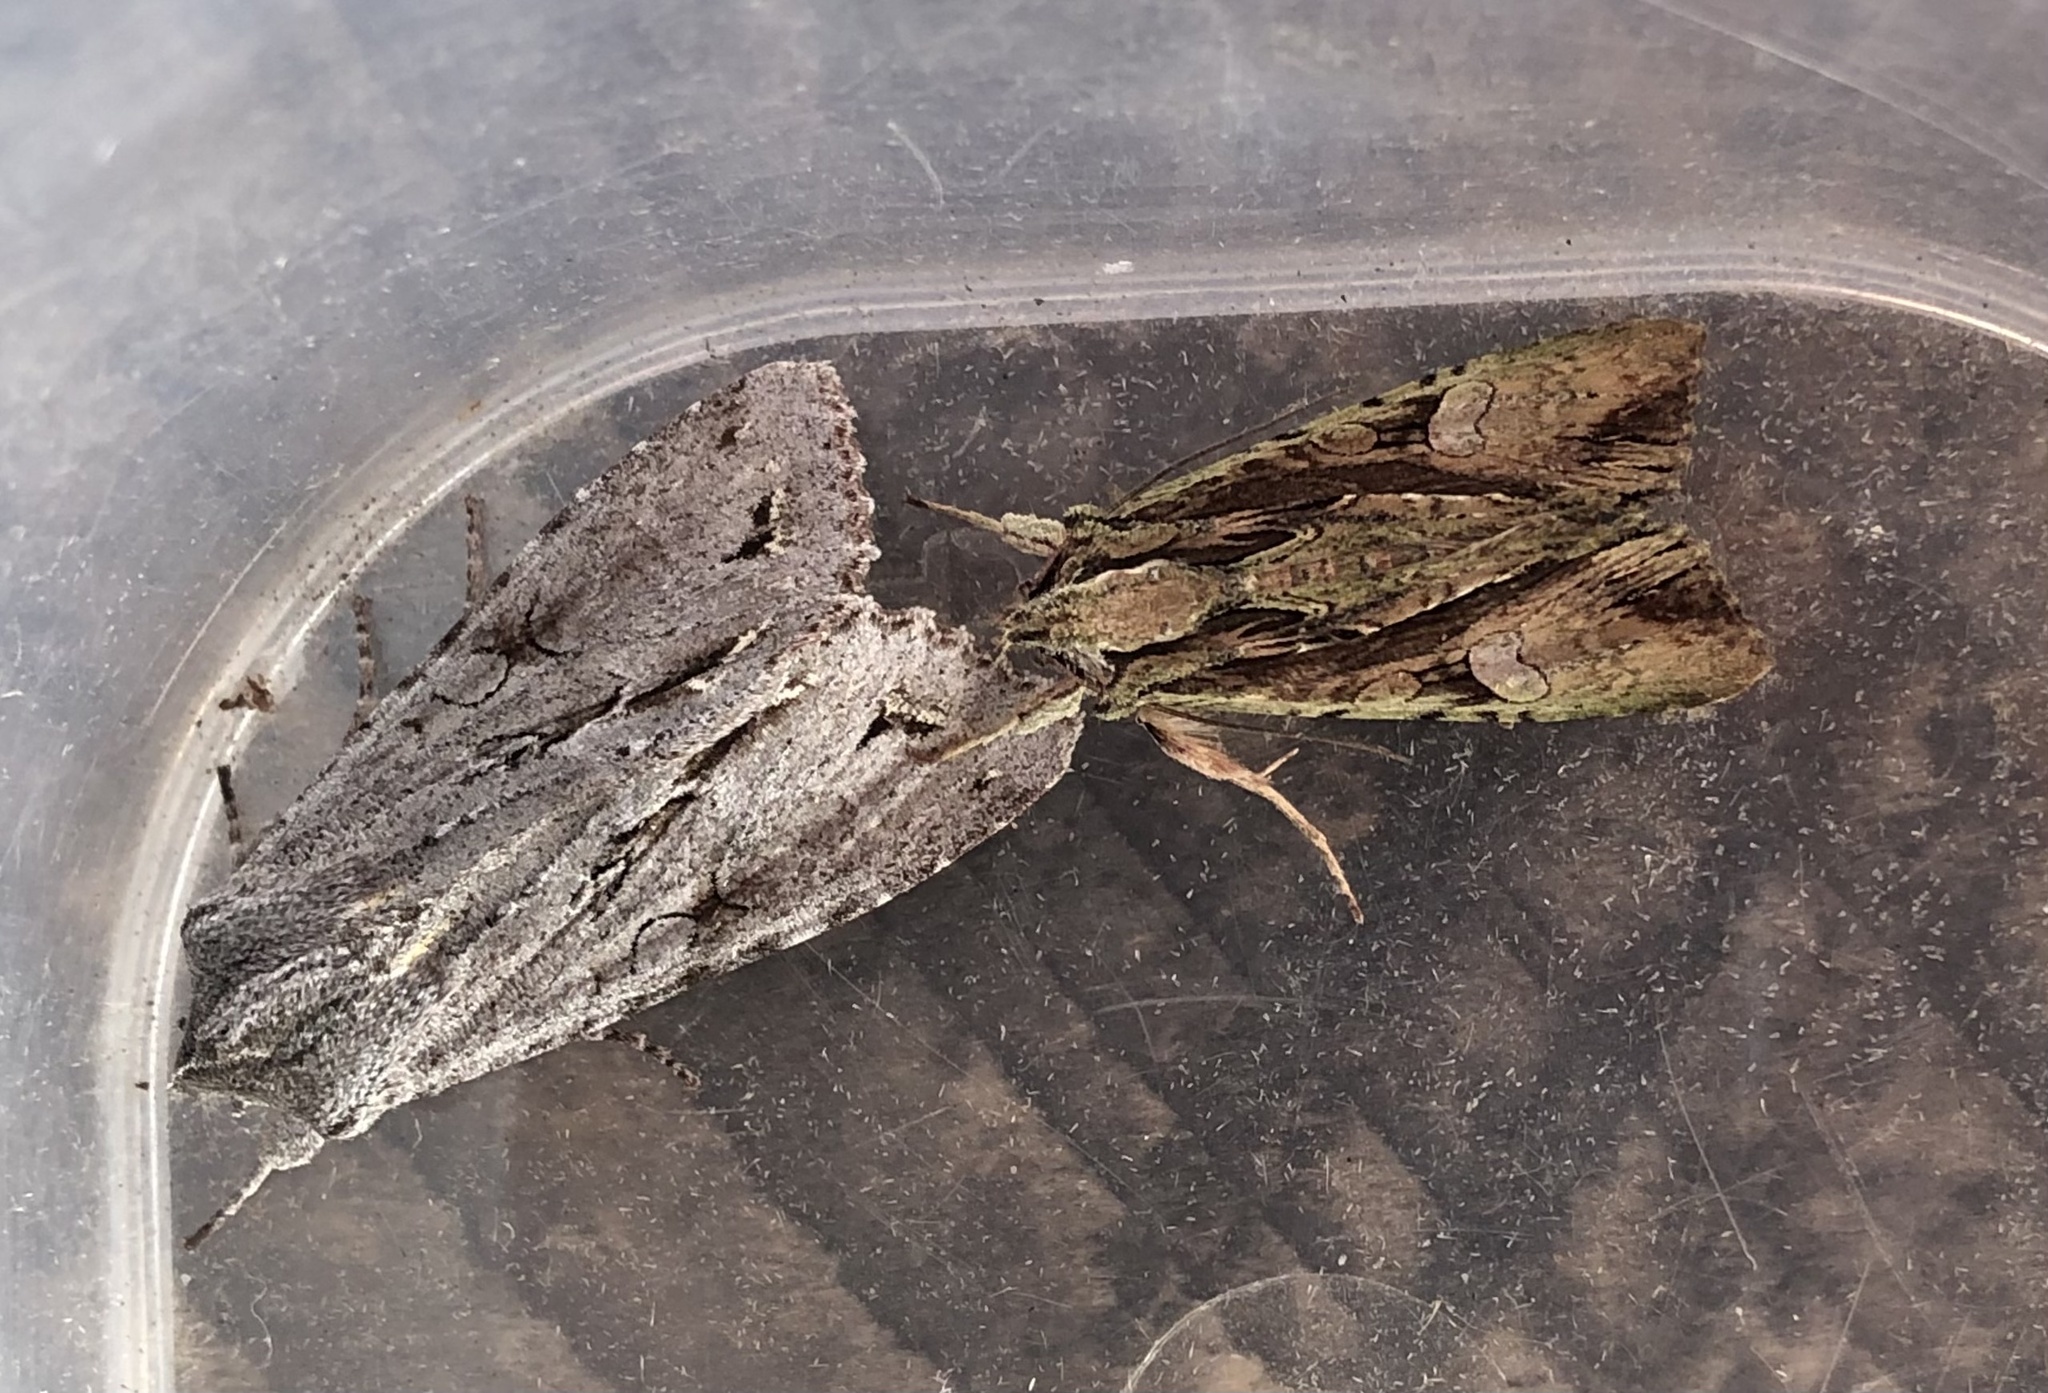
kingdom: Animalia
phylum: Arthropoda
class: Insecta
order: Lepidoptera
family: Noctuidae
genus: Ichneutica
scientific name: Ichneutica
